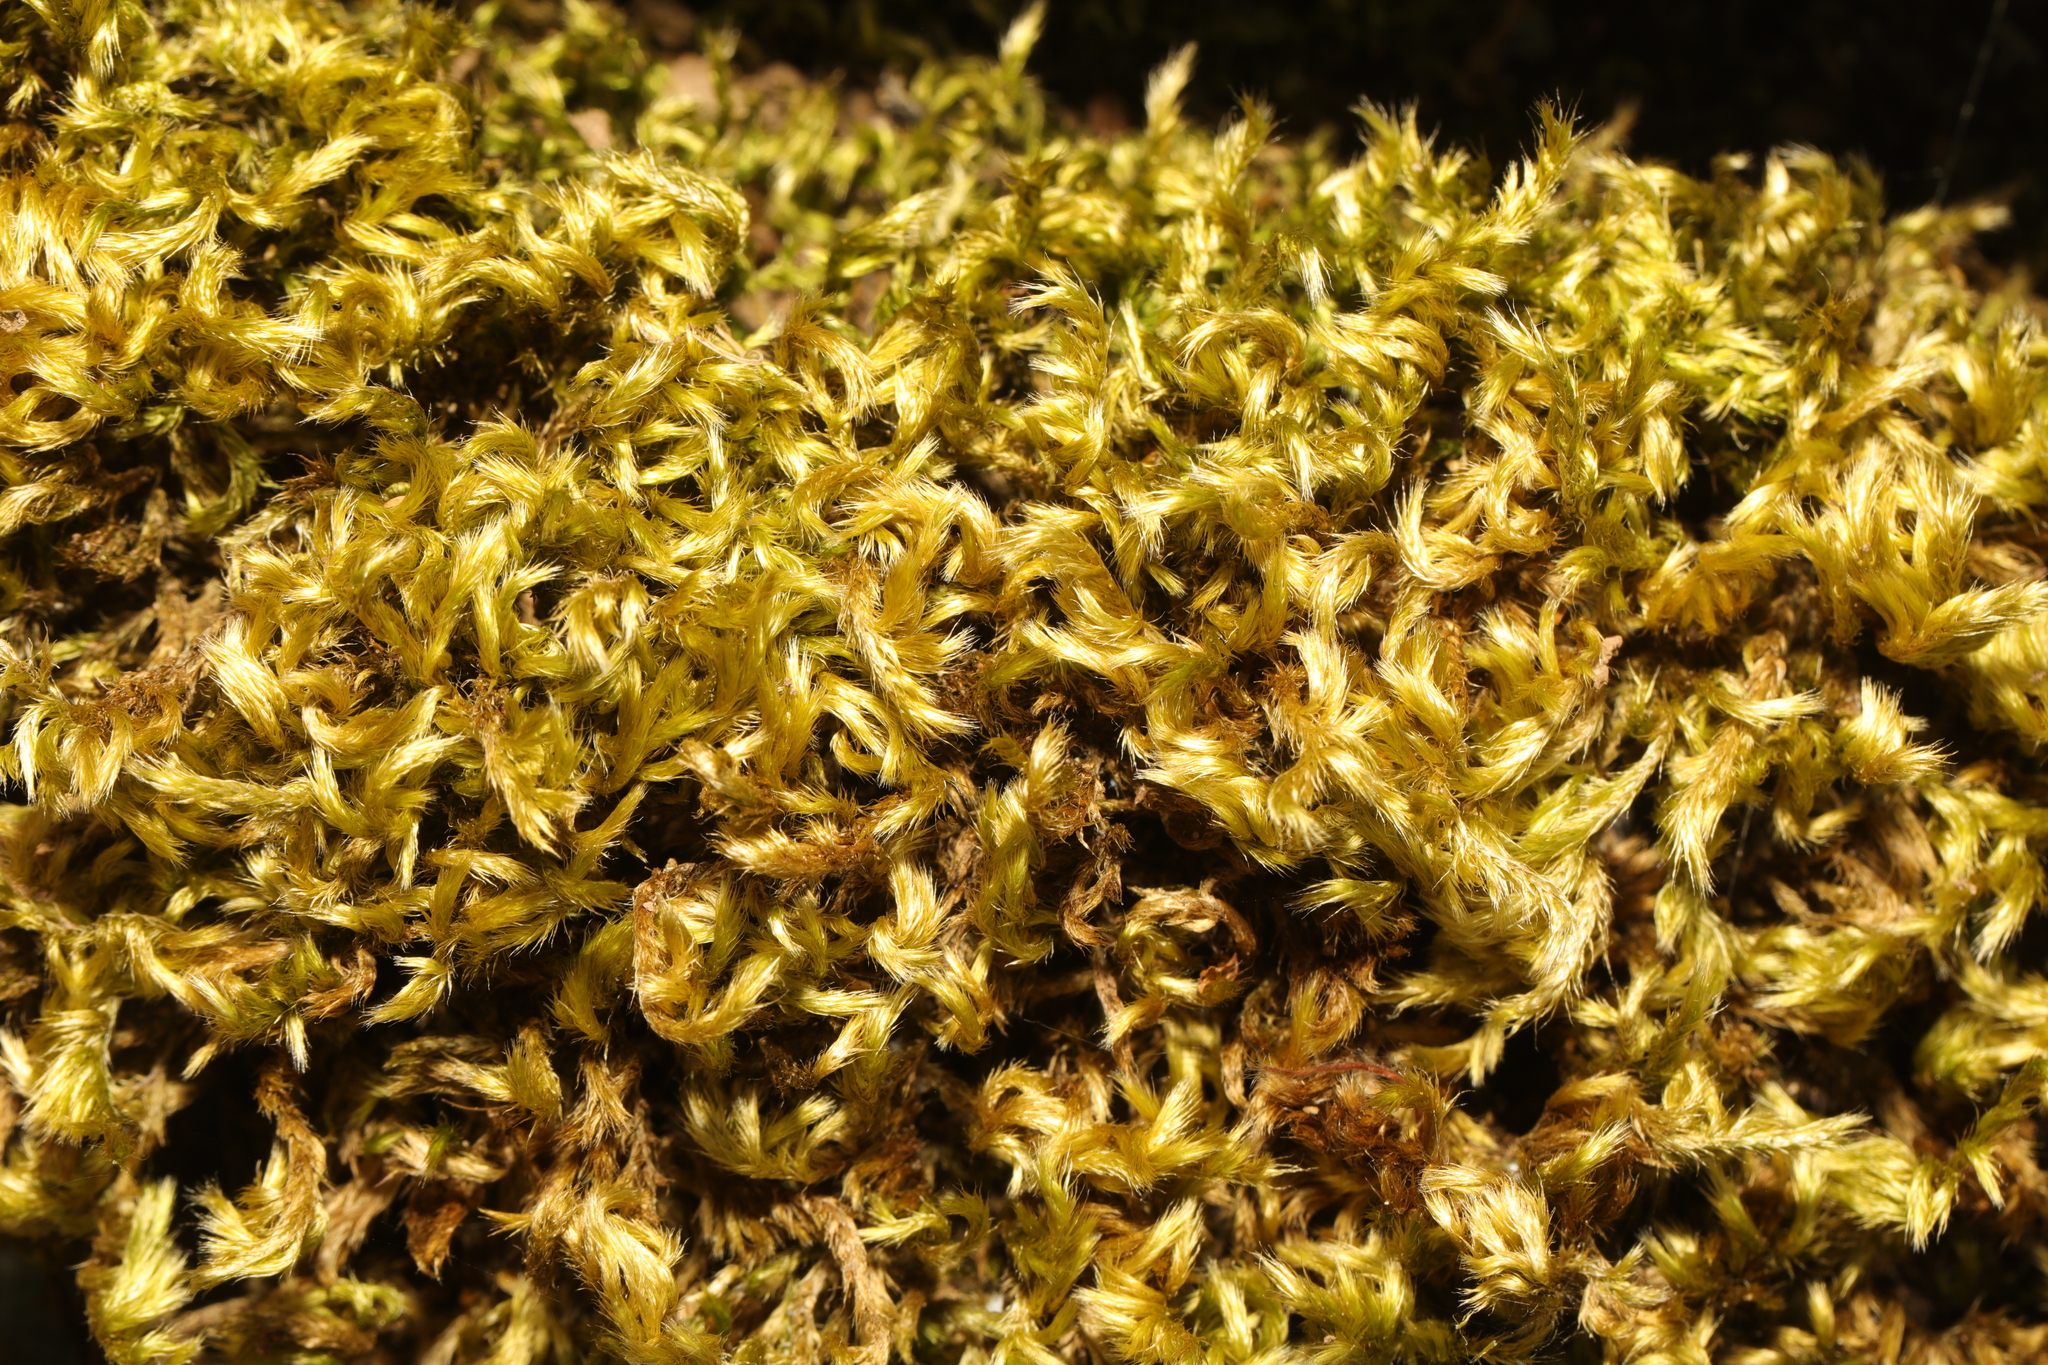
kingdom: Plantae
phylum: Bryophyta
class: Bryopsida
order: Hypnales
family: Brachytheciaceae
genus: Homalothecium
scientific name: Homalothecium sericeum
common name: Silky wall feather-moss
